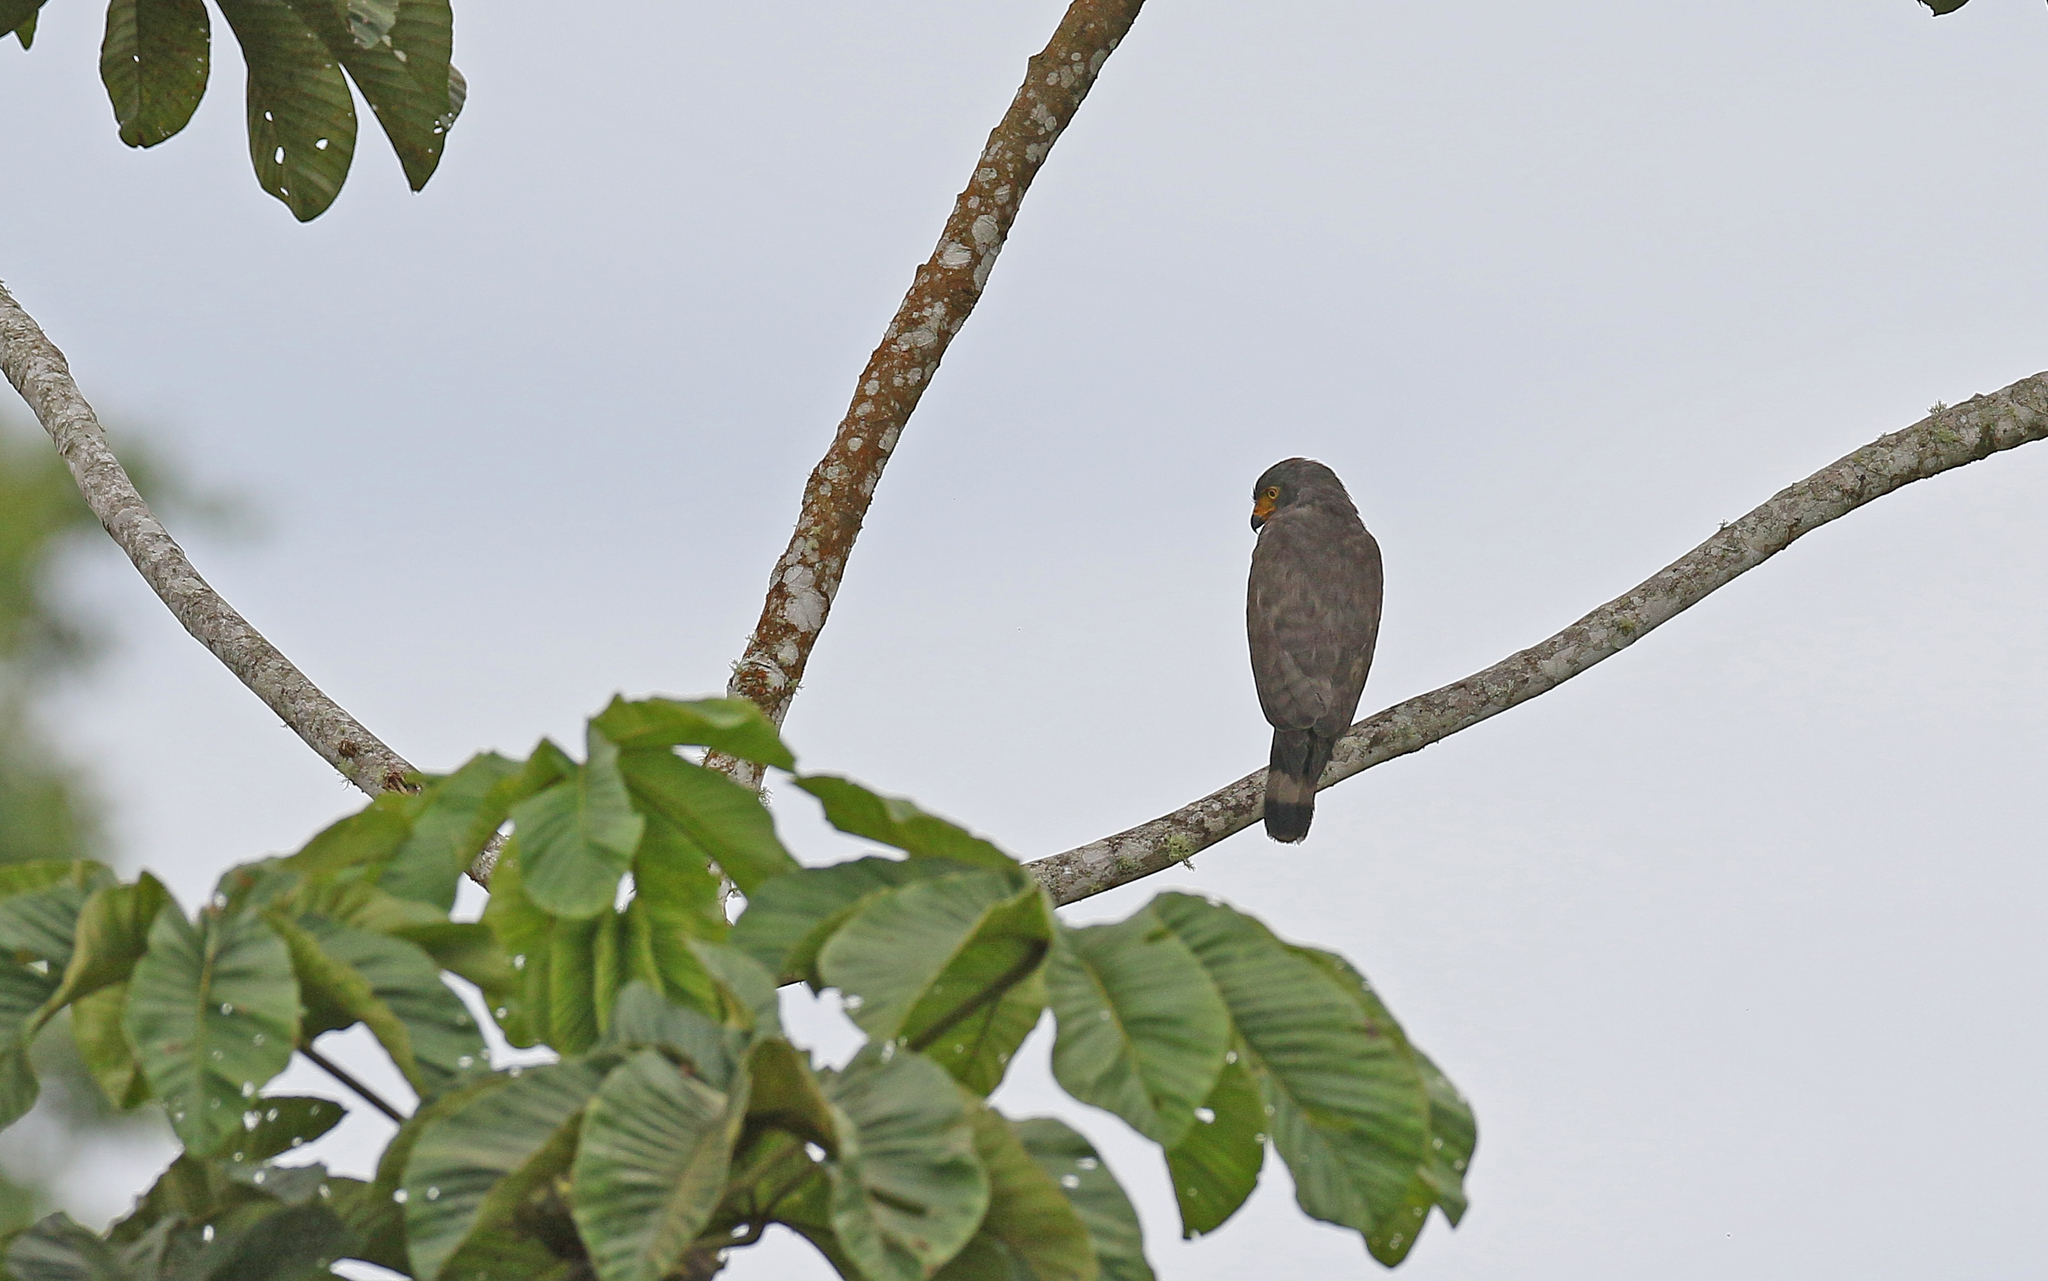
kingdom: Animalia
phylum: Chordata
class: Aves
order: Accipitriformes
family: Accipitridae
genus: Rupornis
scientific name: Rupornis magnirostris
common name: Roadside hawk
